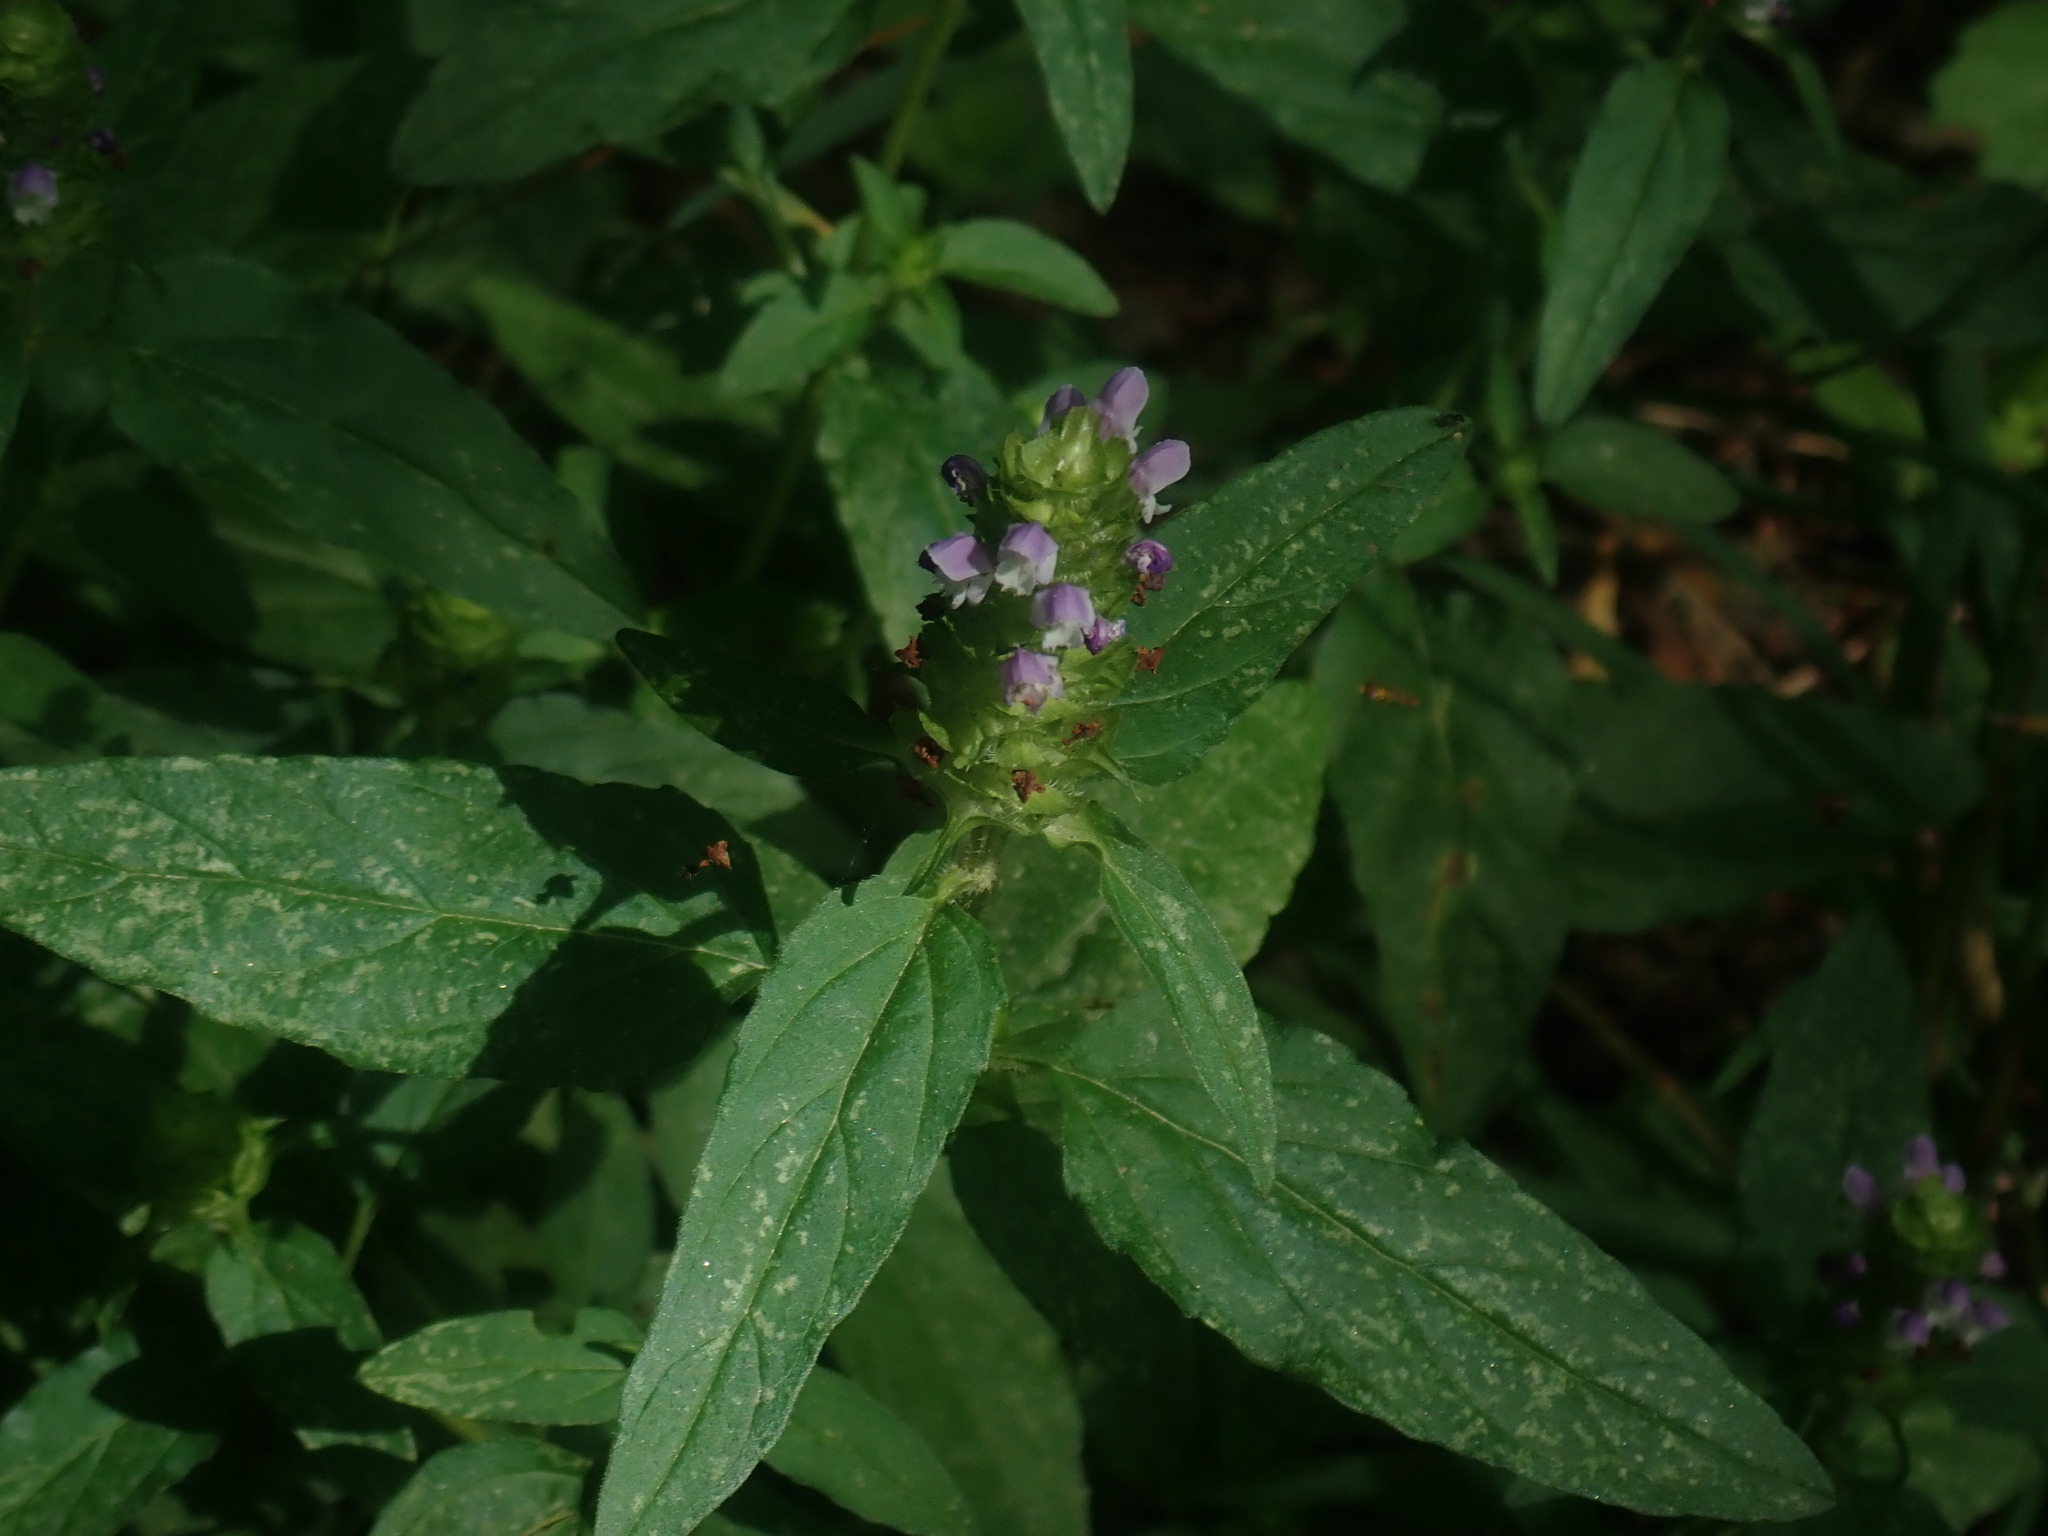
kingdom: Plantae
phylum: Tracheophyta
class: Magnoliopsida
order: Lamiales
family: Lamiaceae
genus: Prunella
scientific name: Prunella vulgaris
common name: Heal-all
